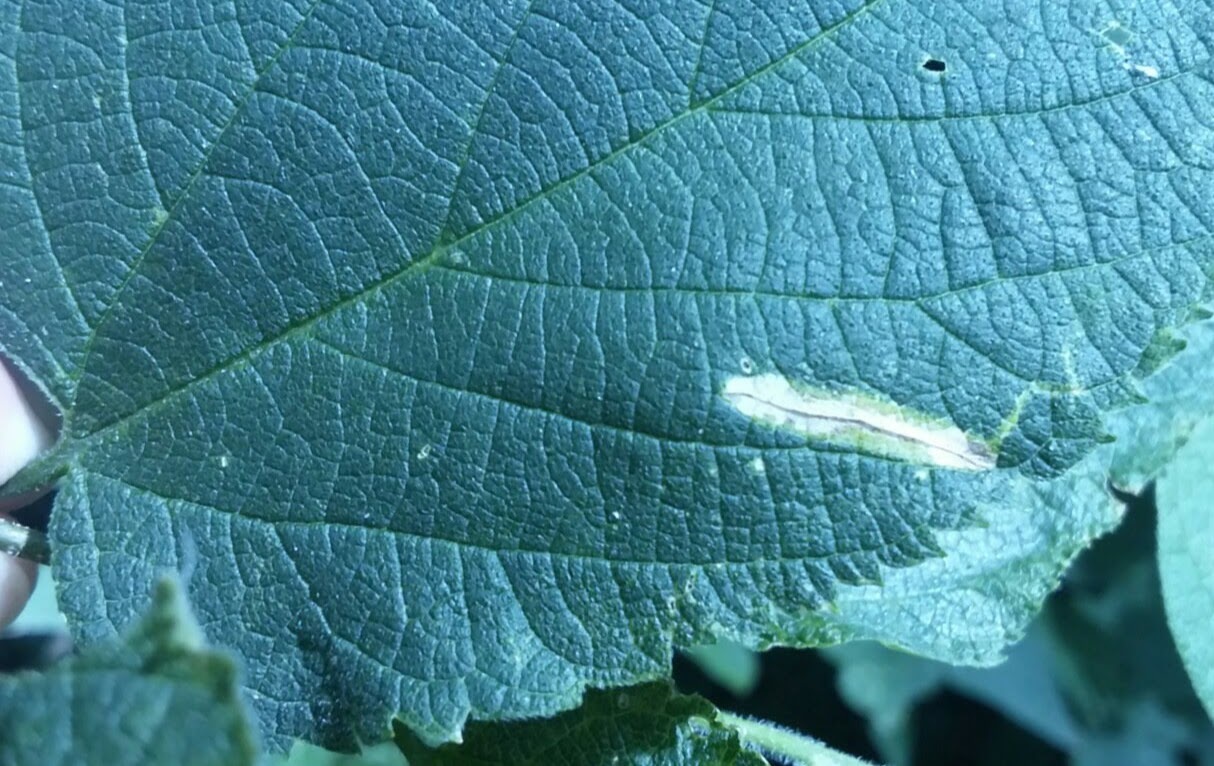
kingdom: Animalia
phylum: Arthropoda
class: Insecta
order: Lepidoptera
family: Gracillariidae
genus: Phyllonorycter
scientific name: Phyllonorycter celtisella
